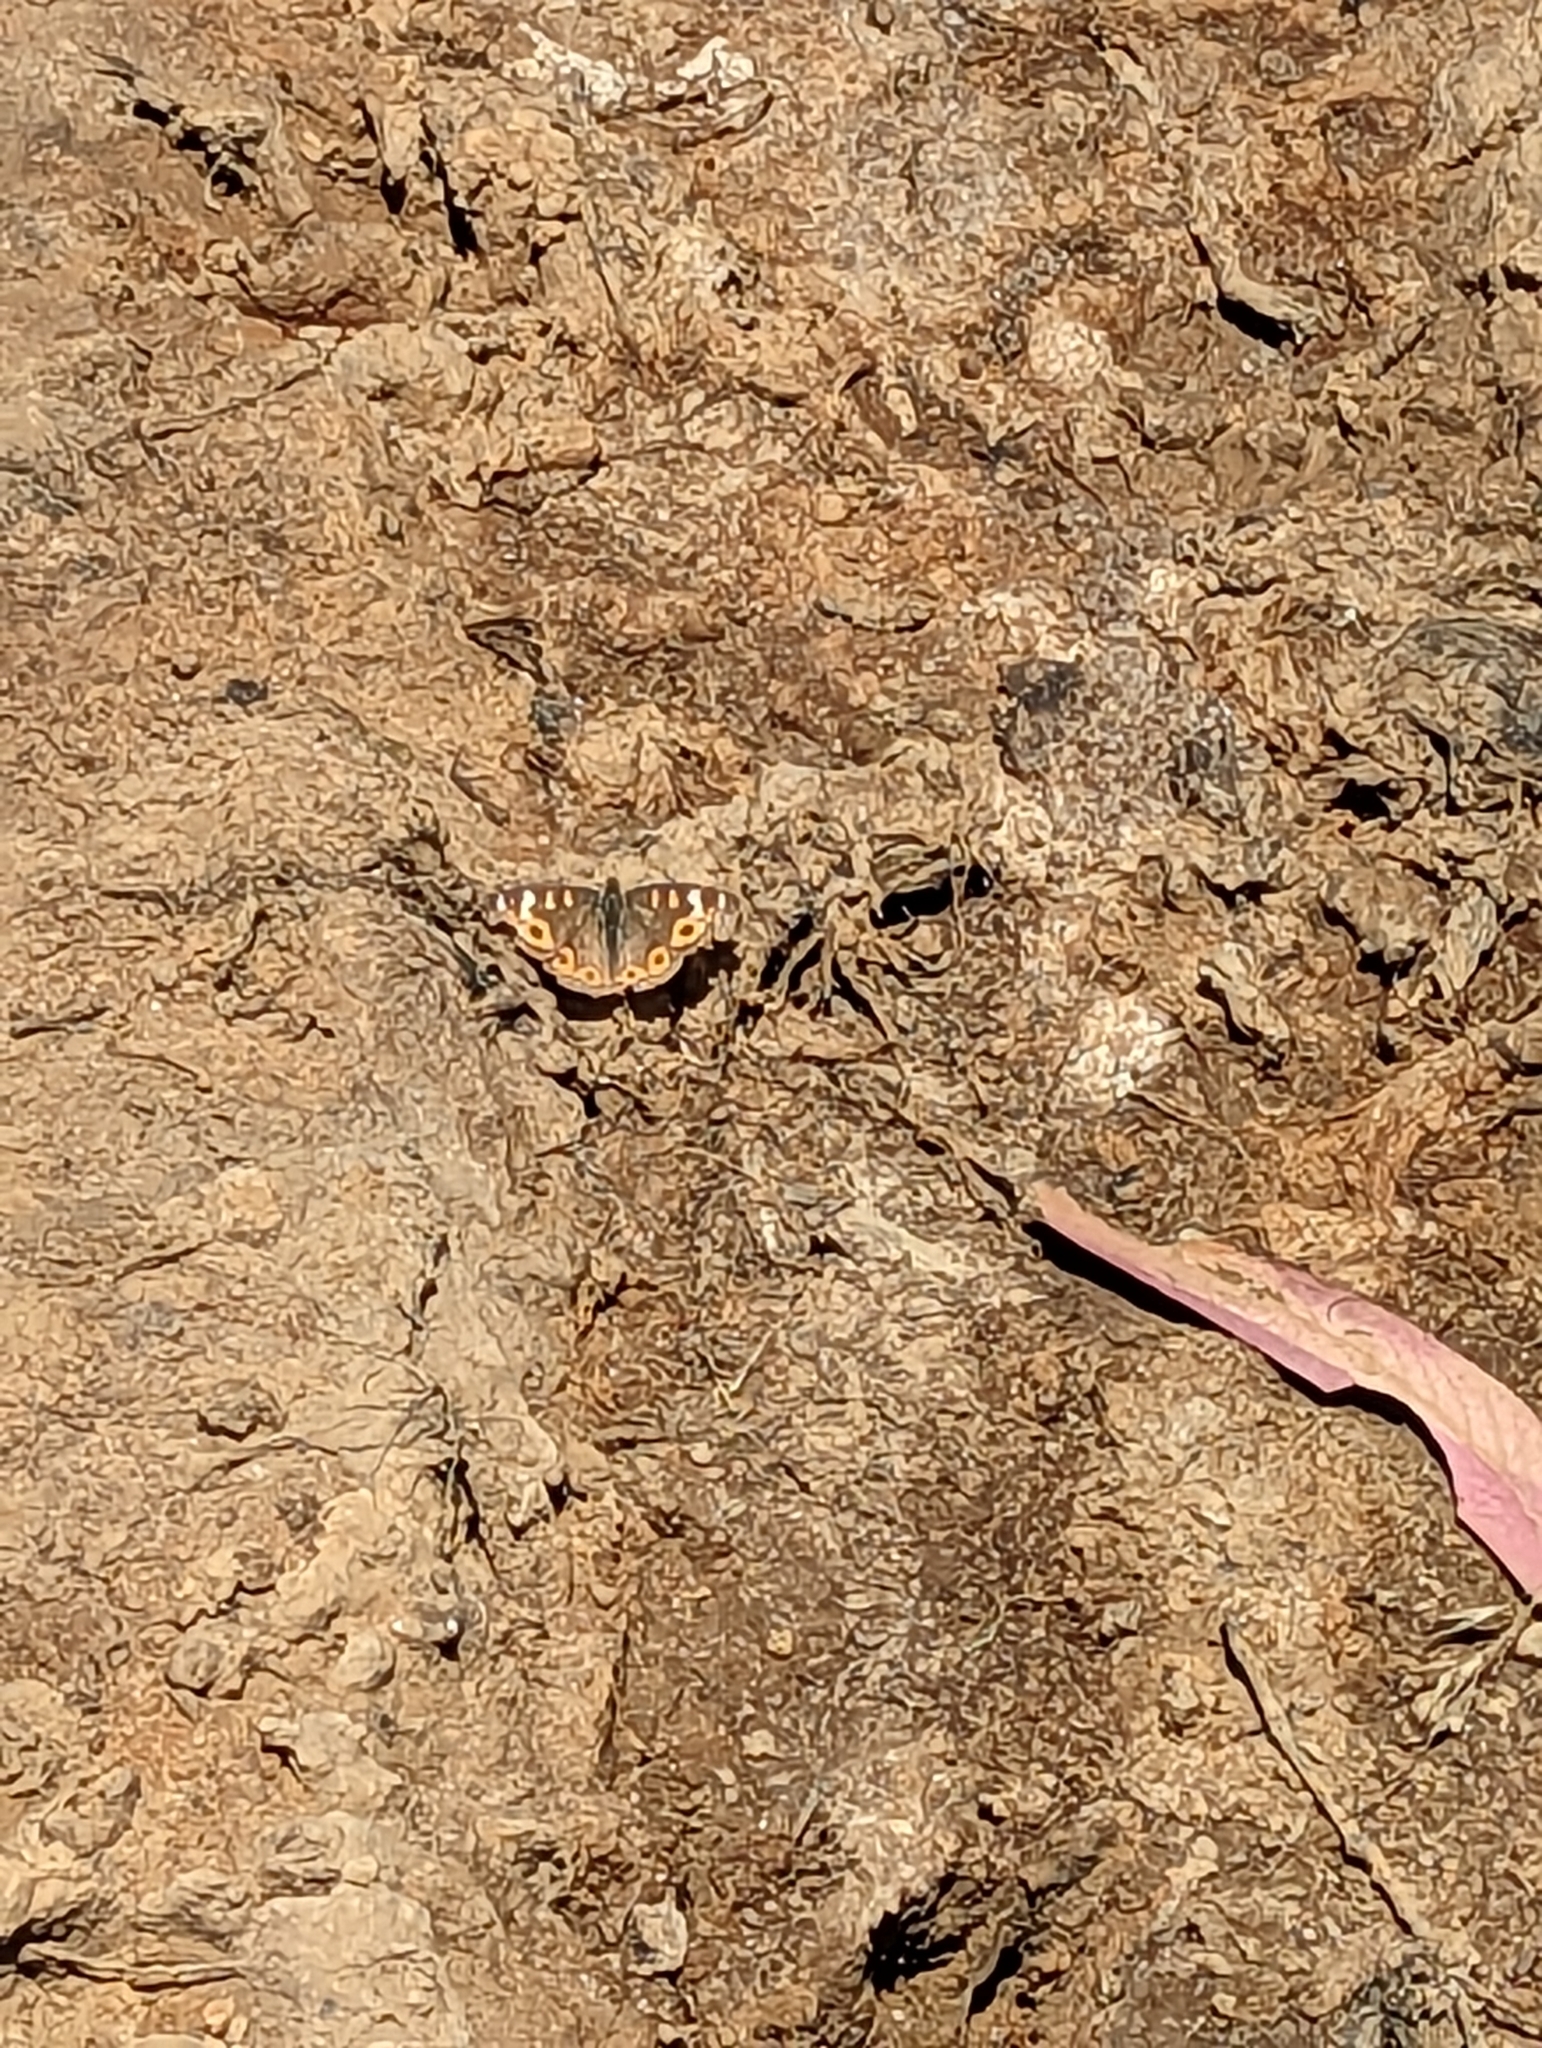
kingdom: Animalia
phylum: Arthropoda
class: Insecta
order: Lepidoptera
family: Nymphalidae
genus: Junonia
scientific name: Junonia villida
